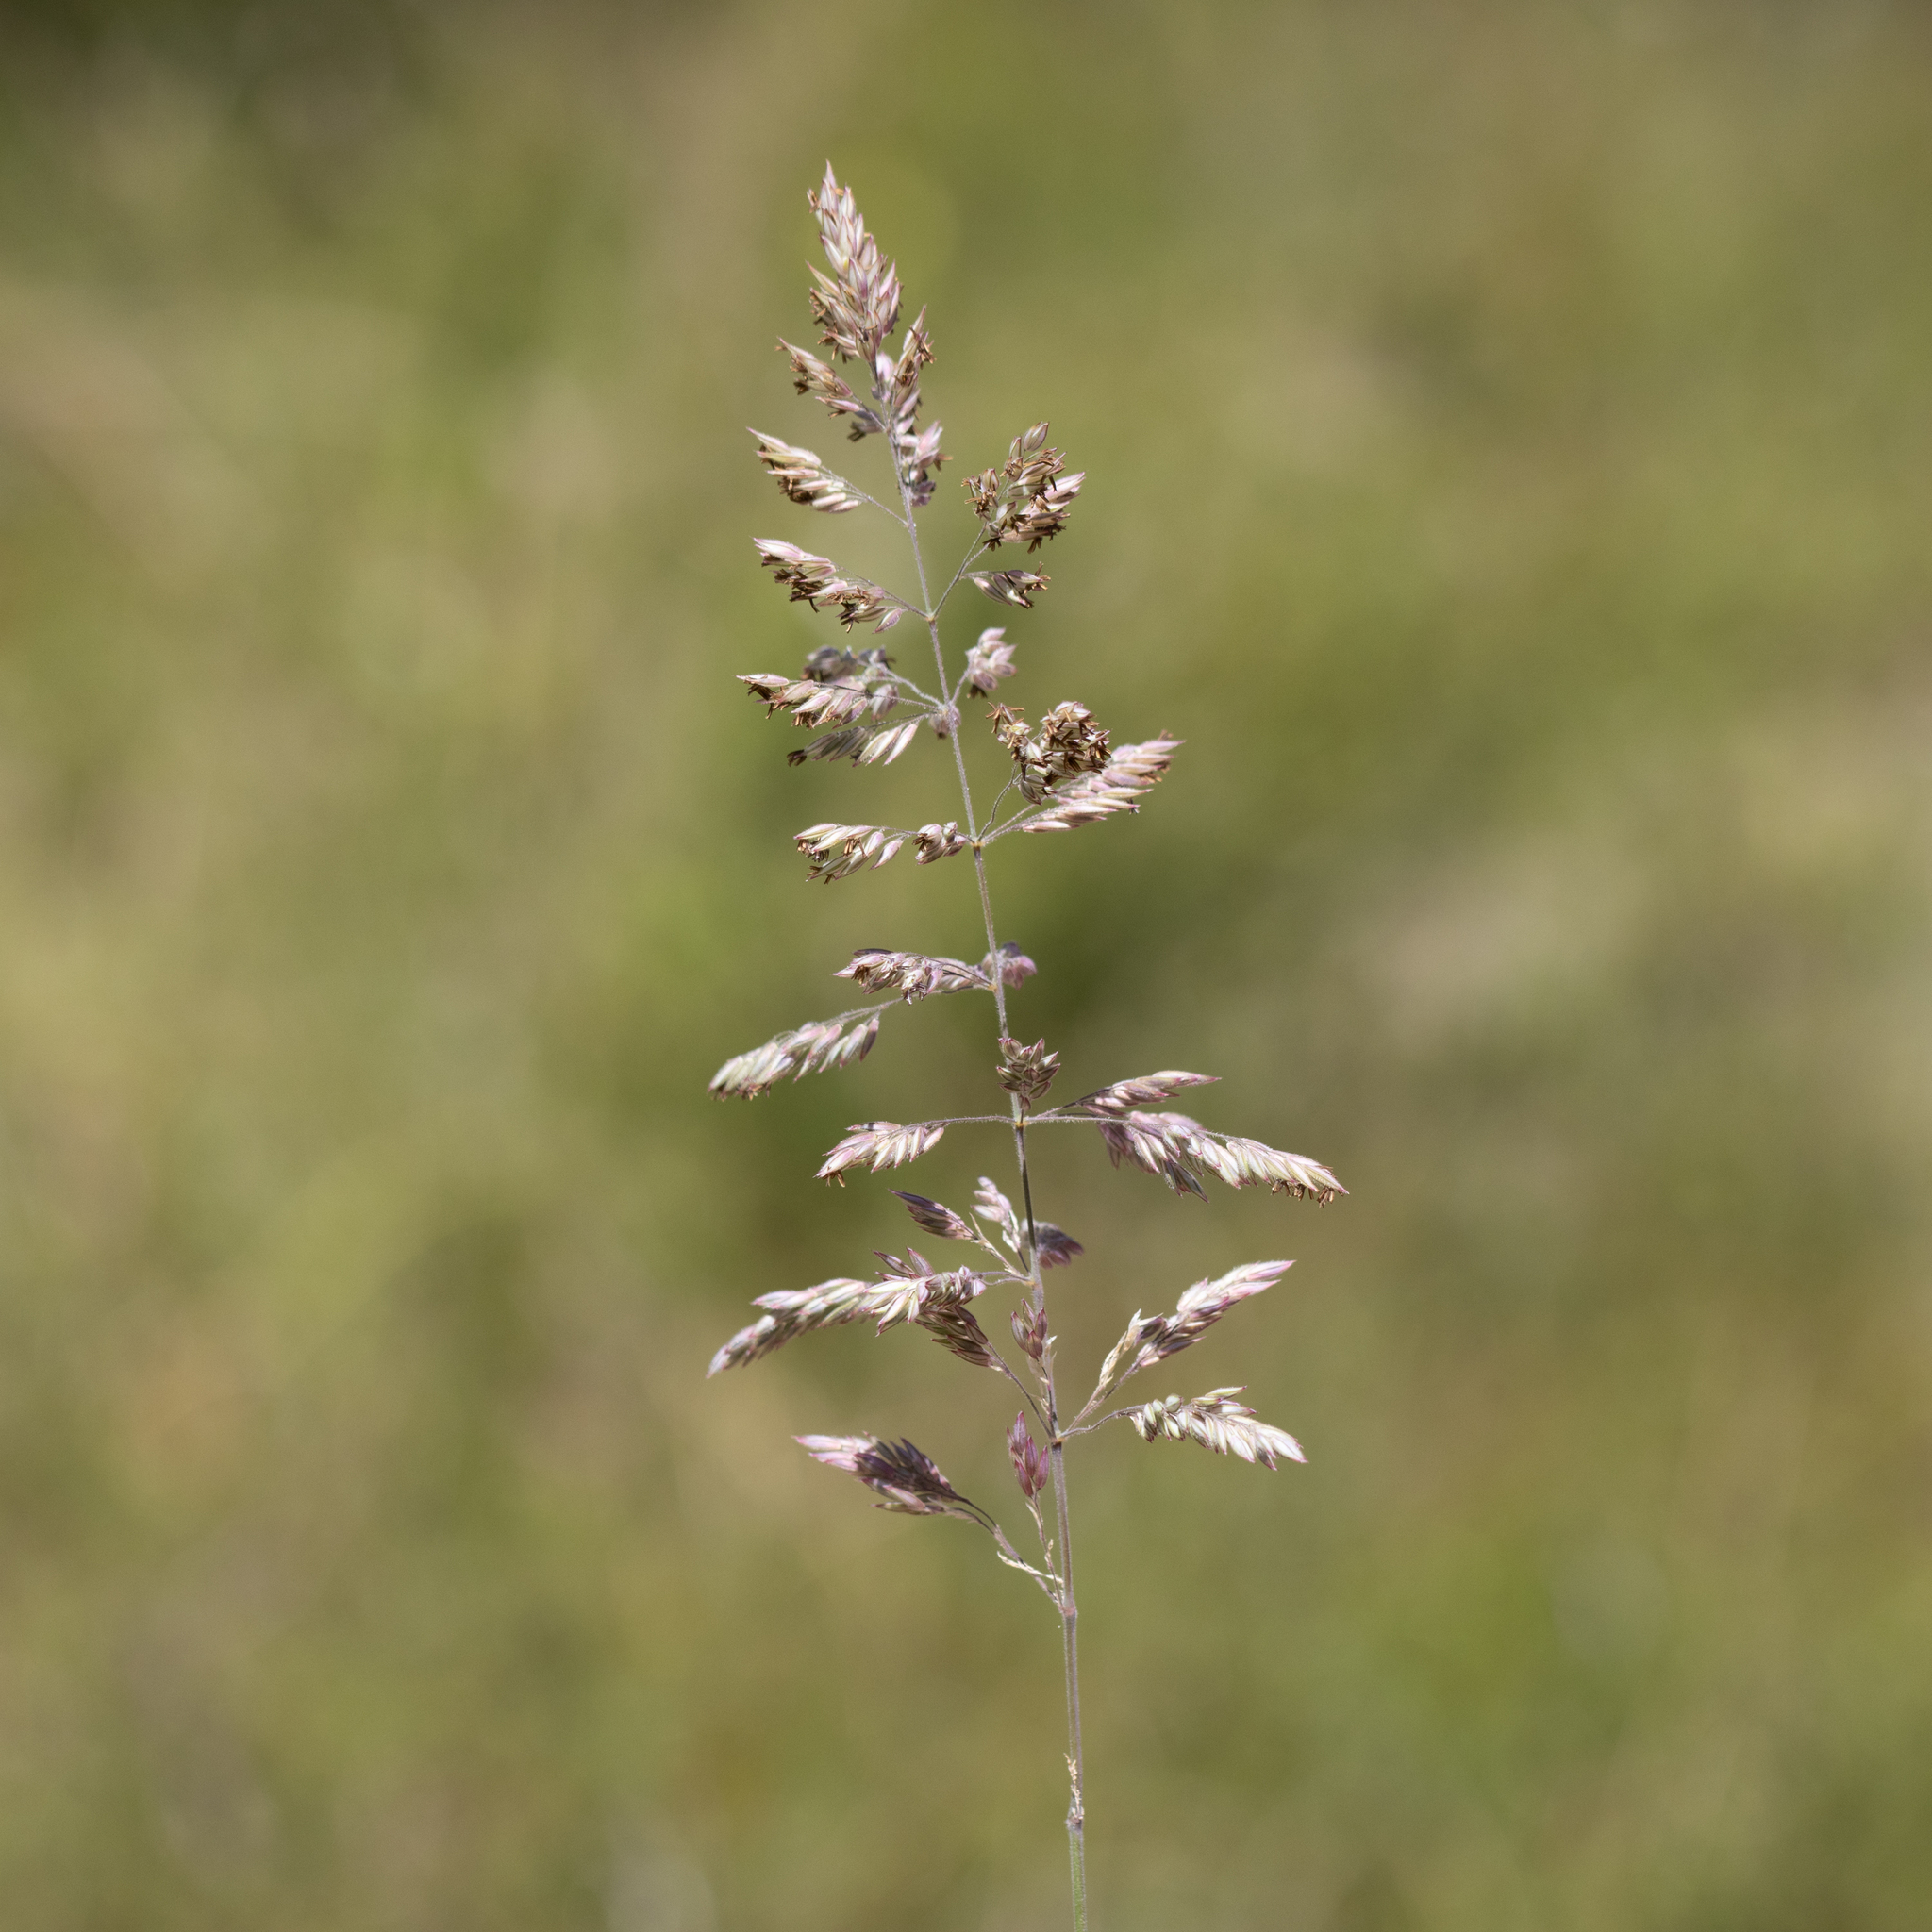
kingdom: Plantae
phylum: Tracheophyta
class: Liliopsida
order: Poales
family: Poaceae
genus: Holcus
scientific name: Holcus lanatus
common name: Yorkshire-fog
